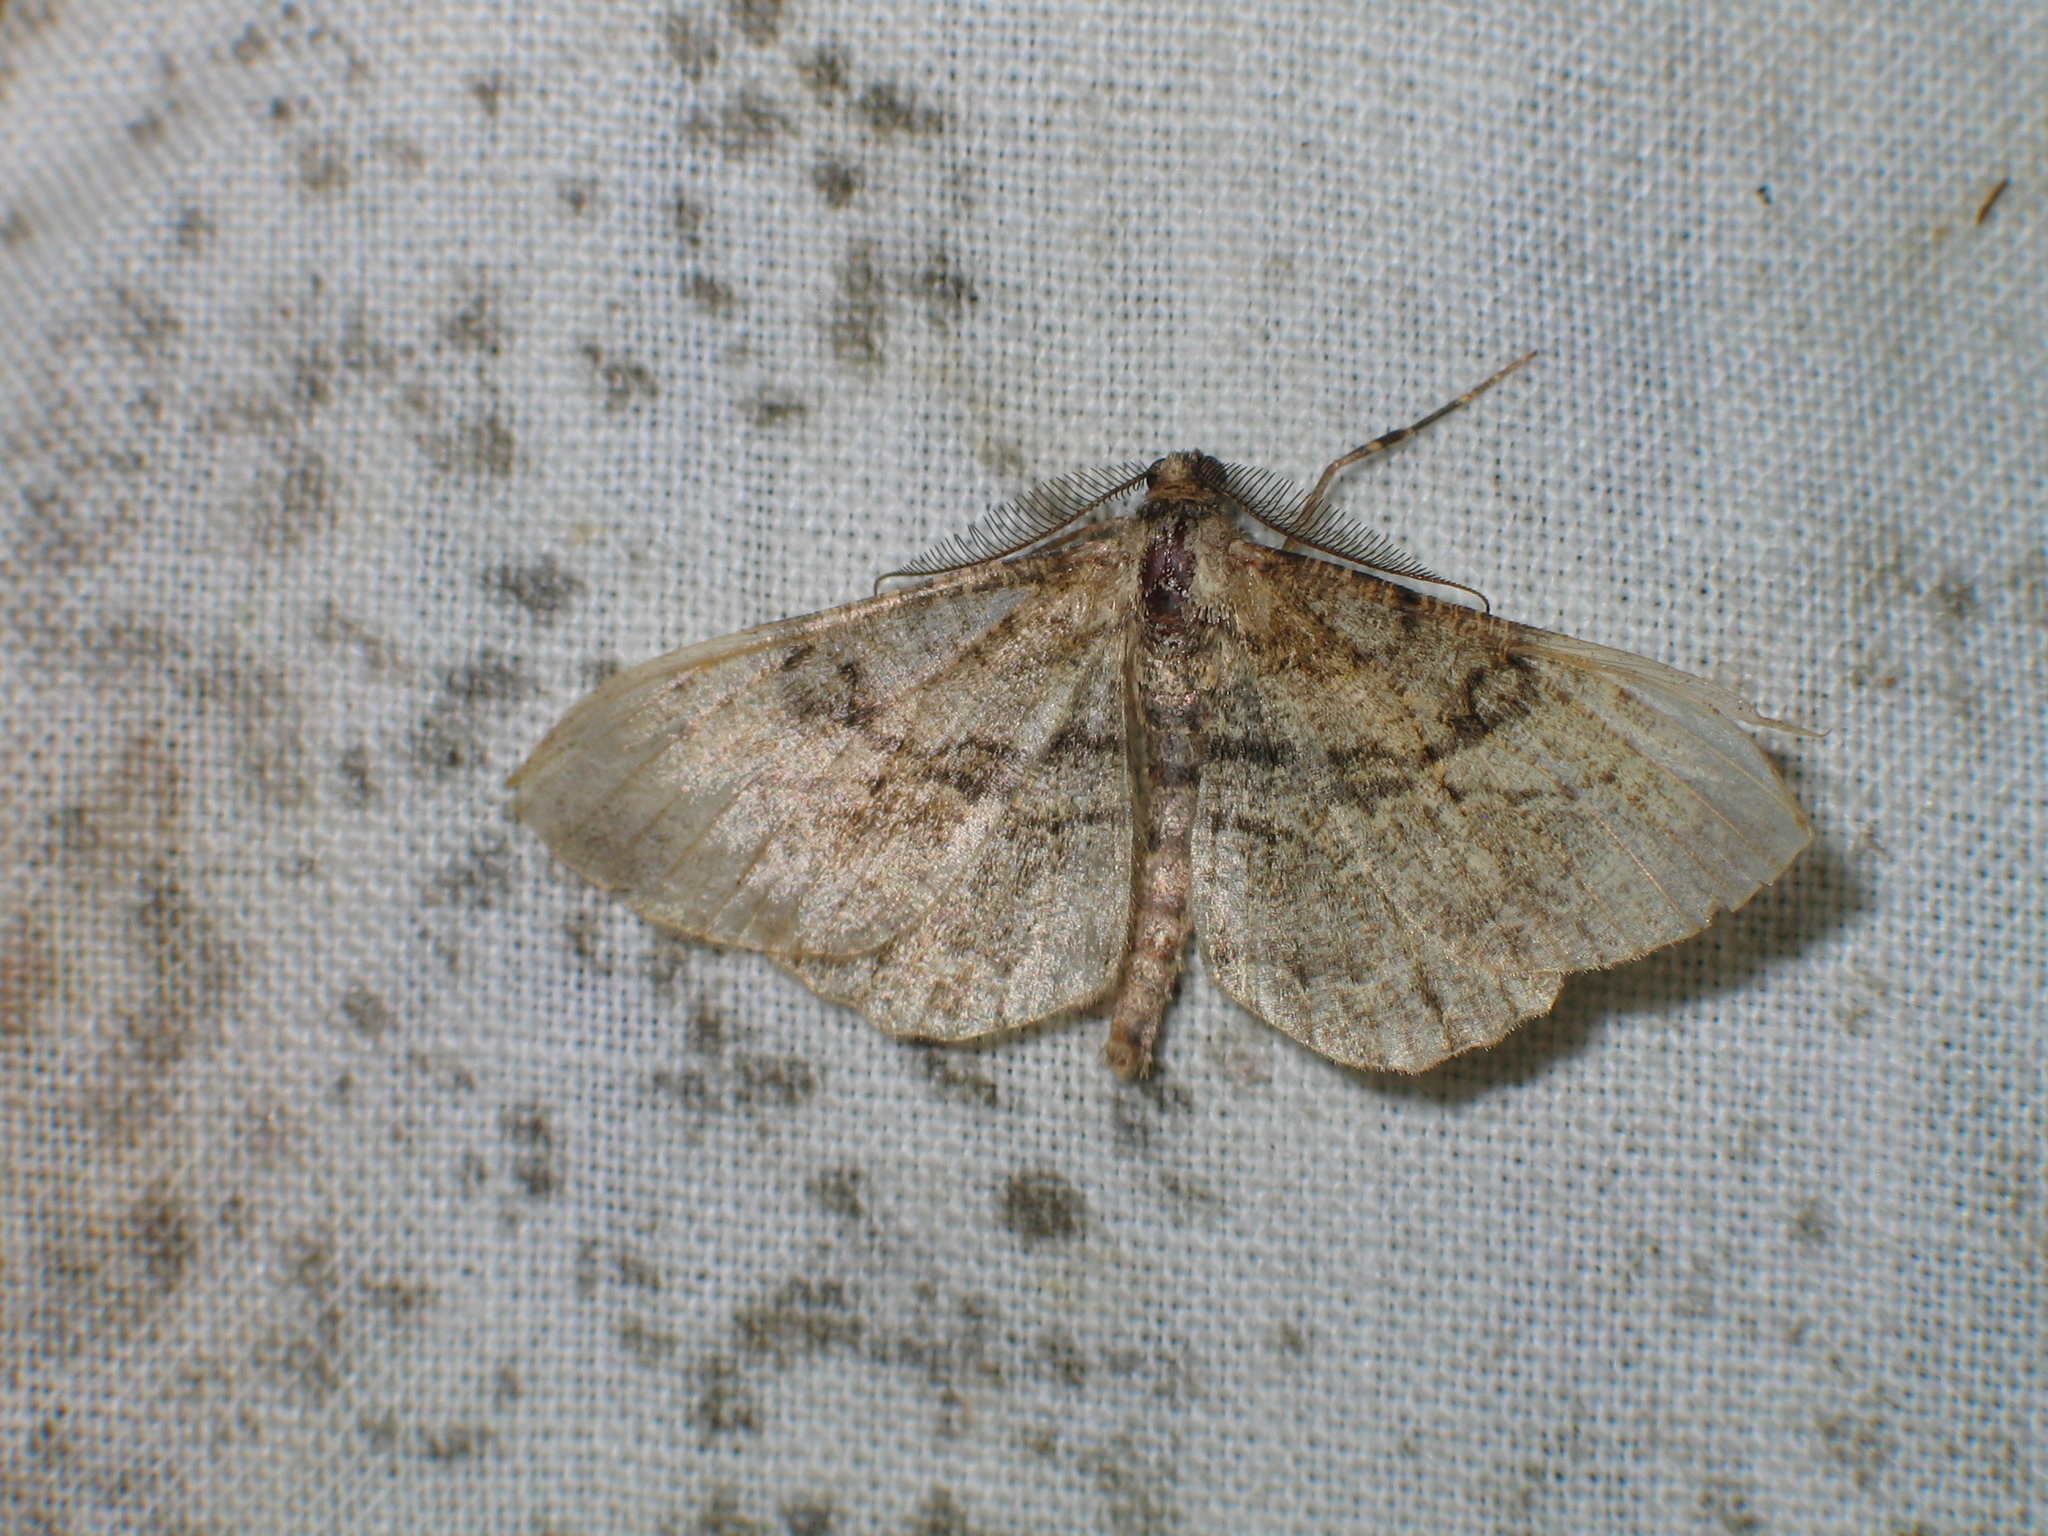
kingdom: Animalia
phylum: Arthropoda
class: Insecta
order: Lepidoptera
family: Geometridae
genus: Peribatodes
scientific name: Peribatodes rhomboidaria
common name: Willow beauty
